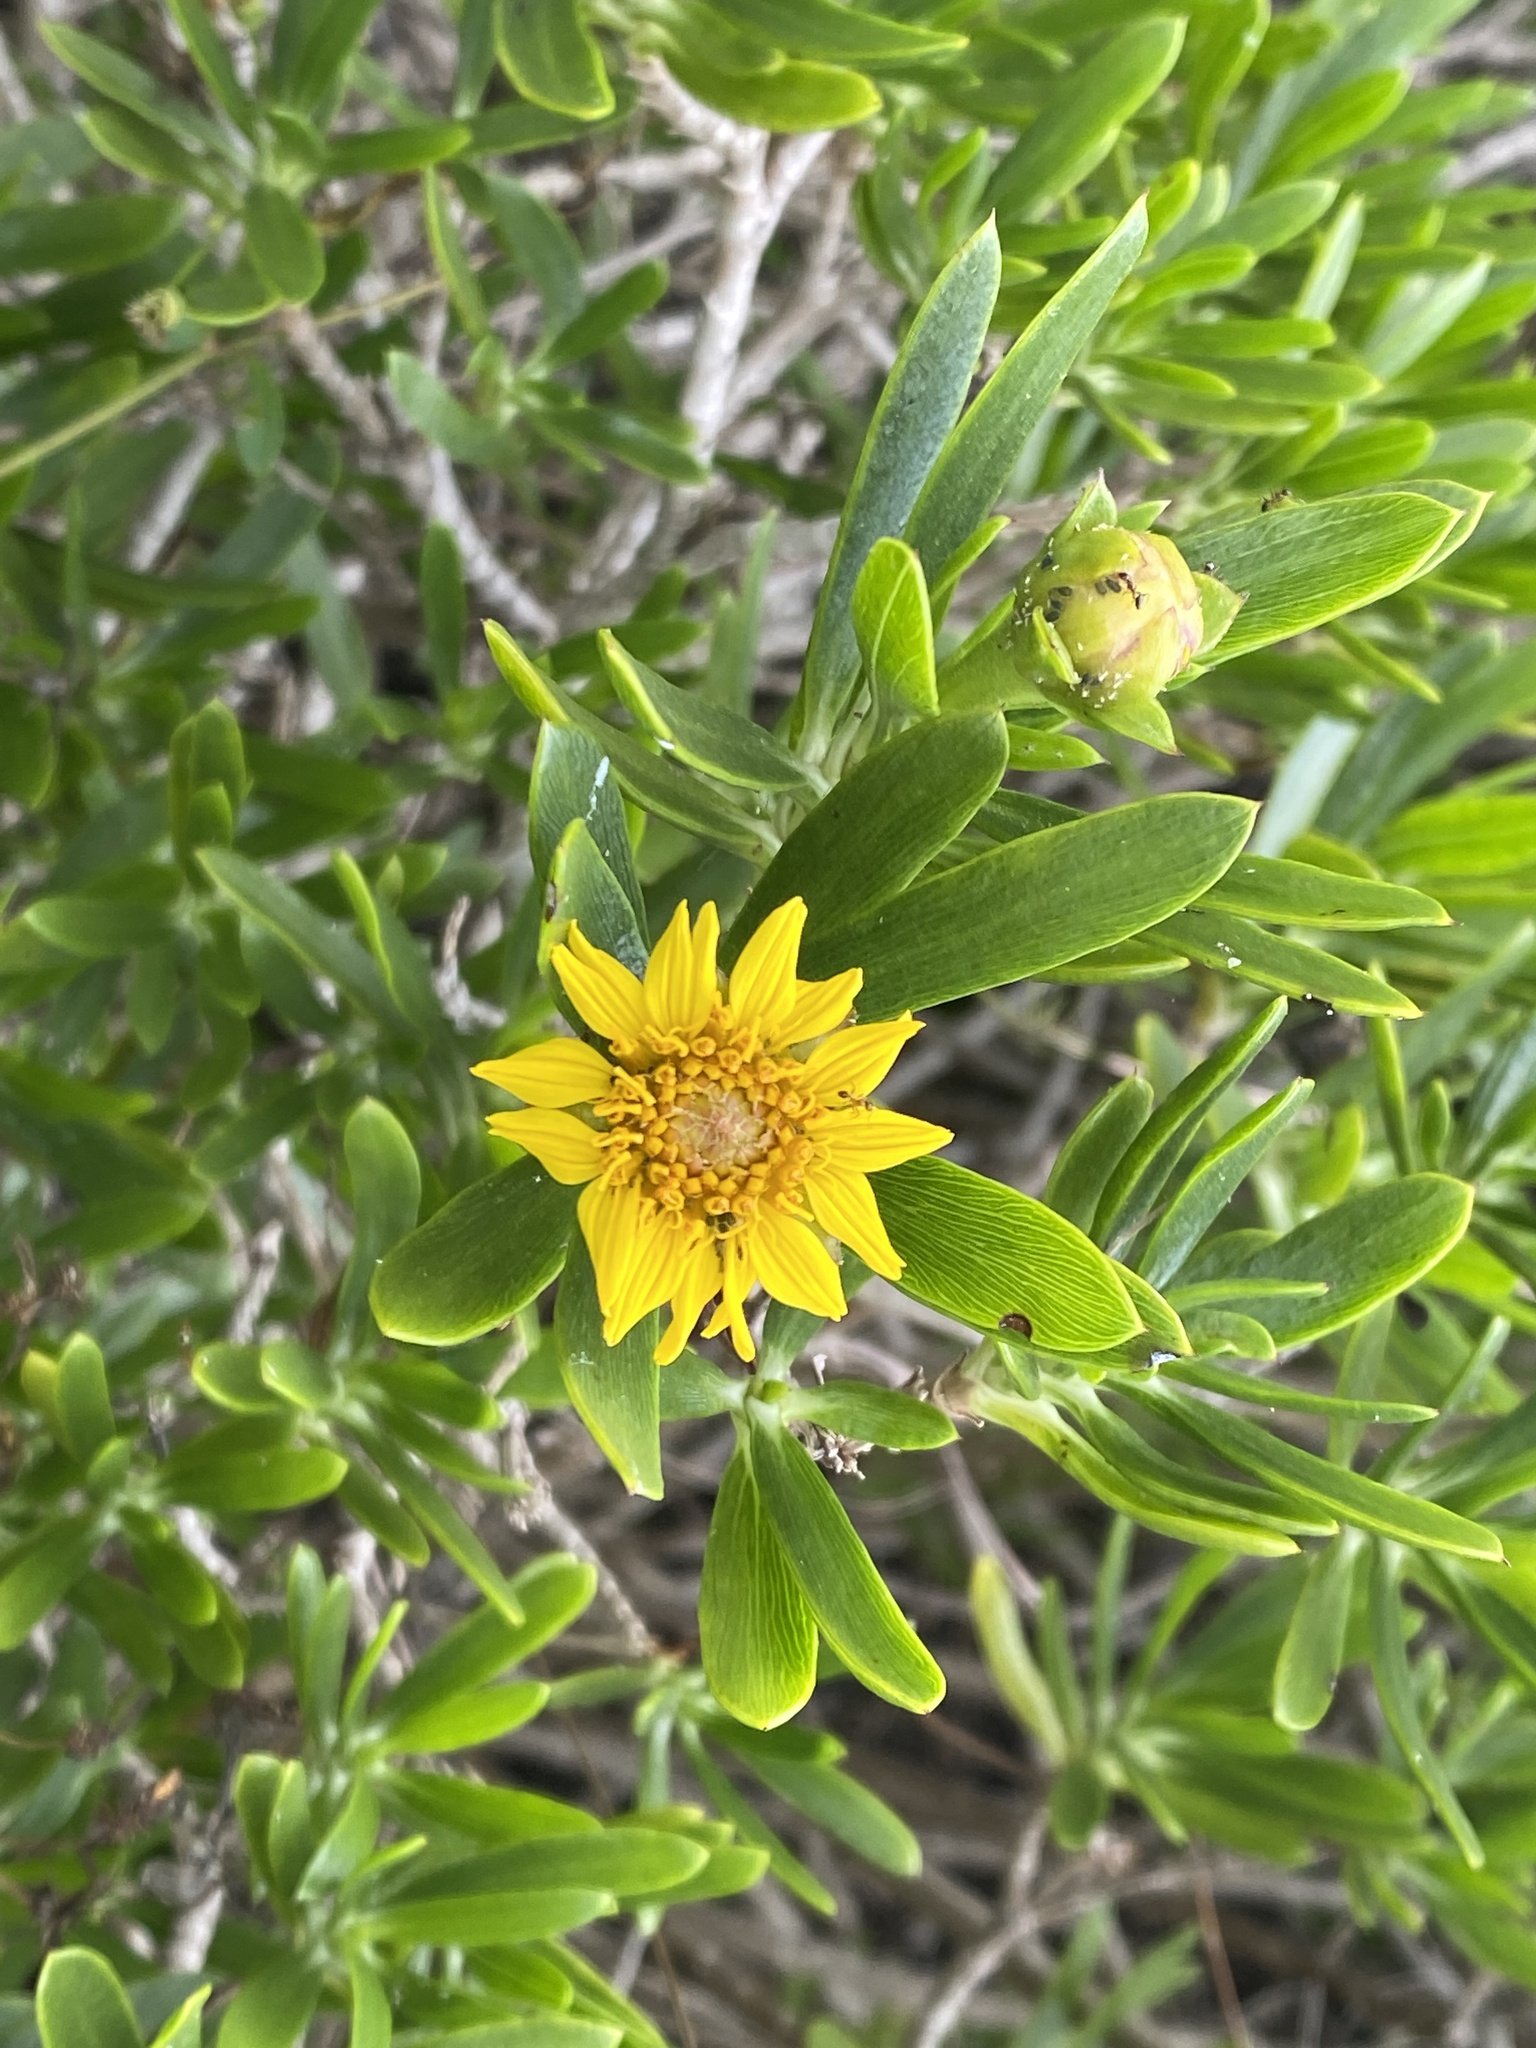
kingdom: Plantae
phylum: Tracheophyta
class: Magnoliopsida
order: Asterales
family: Asteraceae
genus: Borrichia
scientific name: Borrichia arborescens
